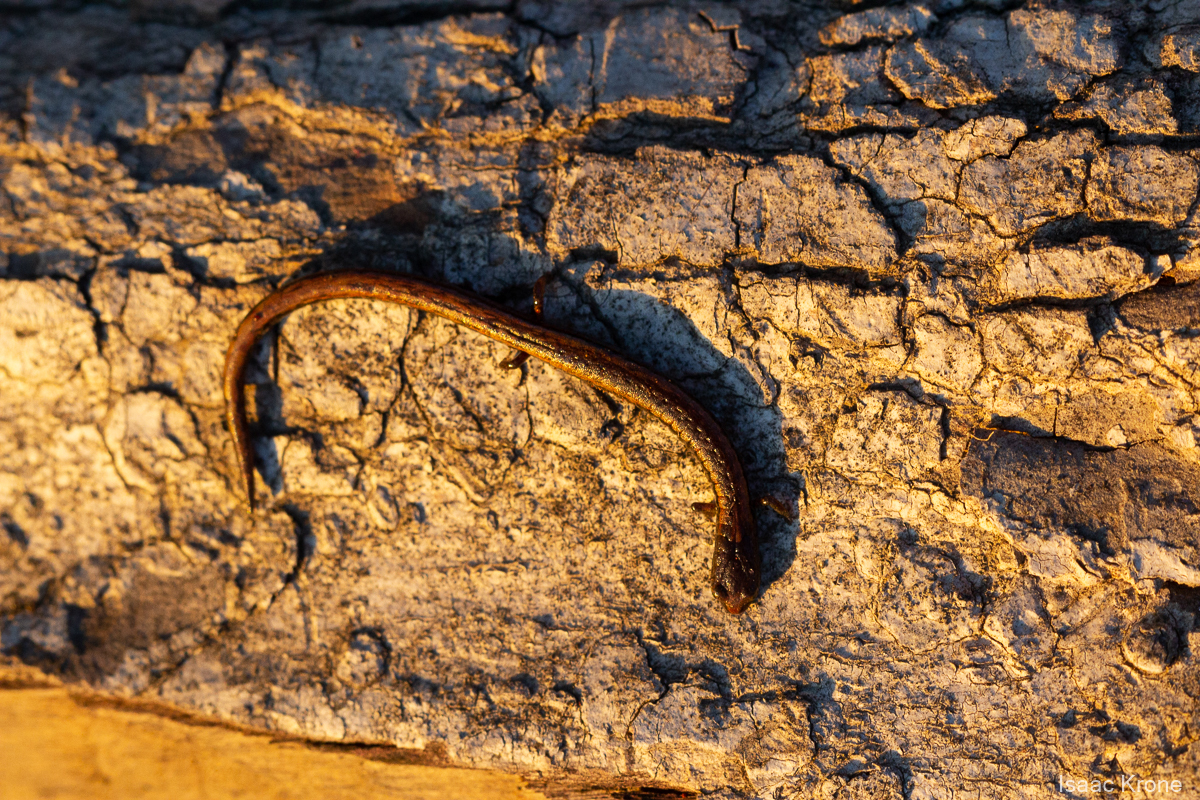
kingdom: Animalia
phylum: Chordata
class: Amphibia
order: Caudata
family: Plethodontidae
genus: Batrachoseps
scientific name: Batrachoseps attenuatus
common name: California slender salamander
